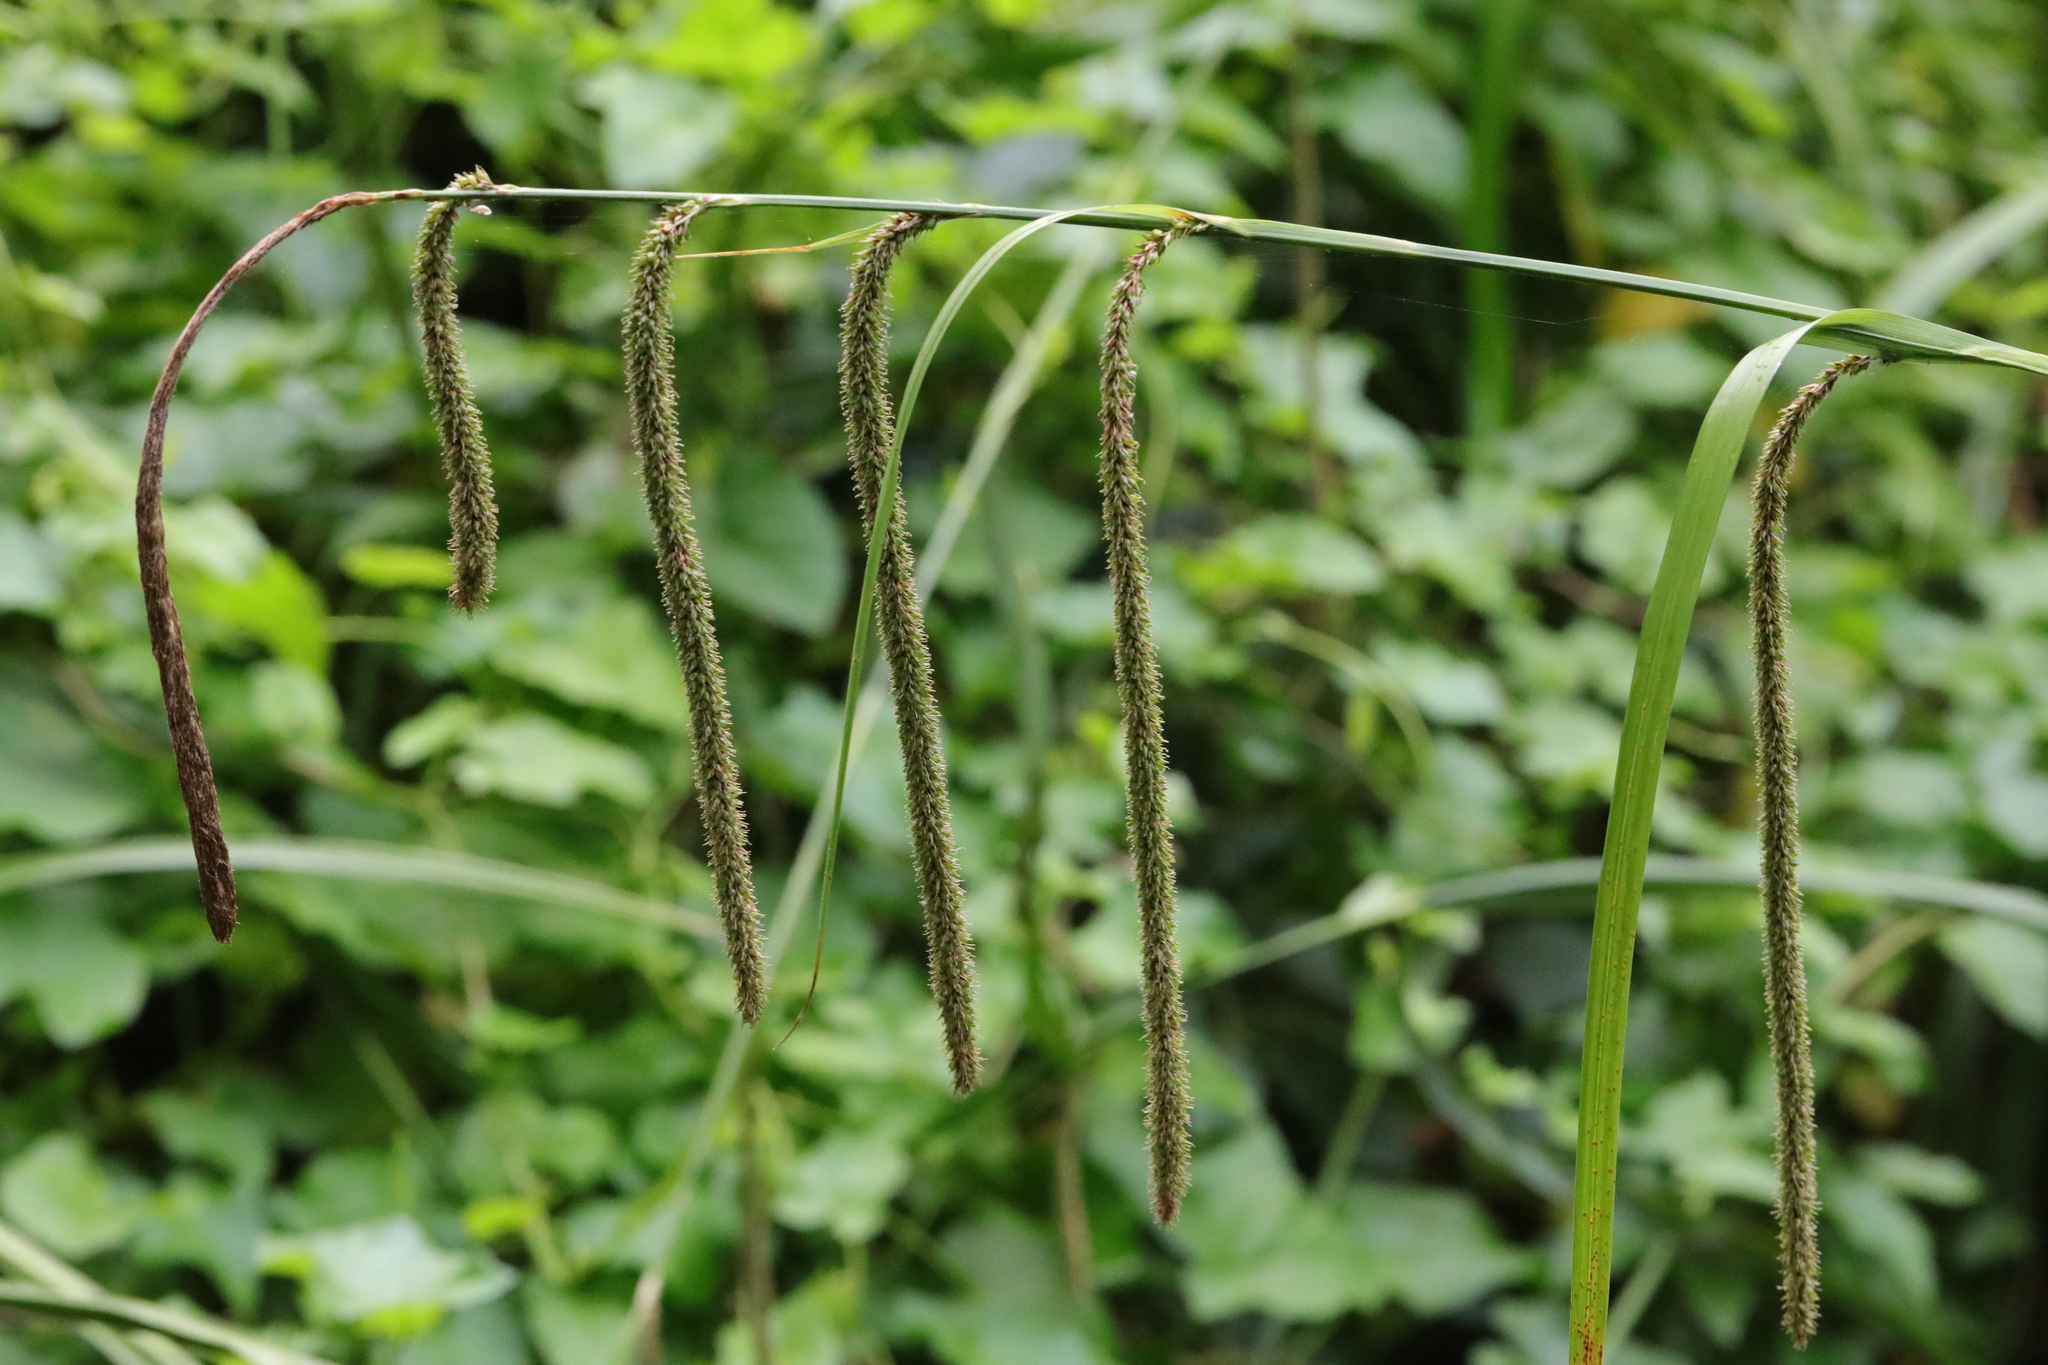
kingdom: Plantae
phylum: Tracheophyta
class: Liliopsida
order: Poales
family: Cyperaceae
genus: Carex
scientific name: Carex pendula
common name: Pendulous sedge
